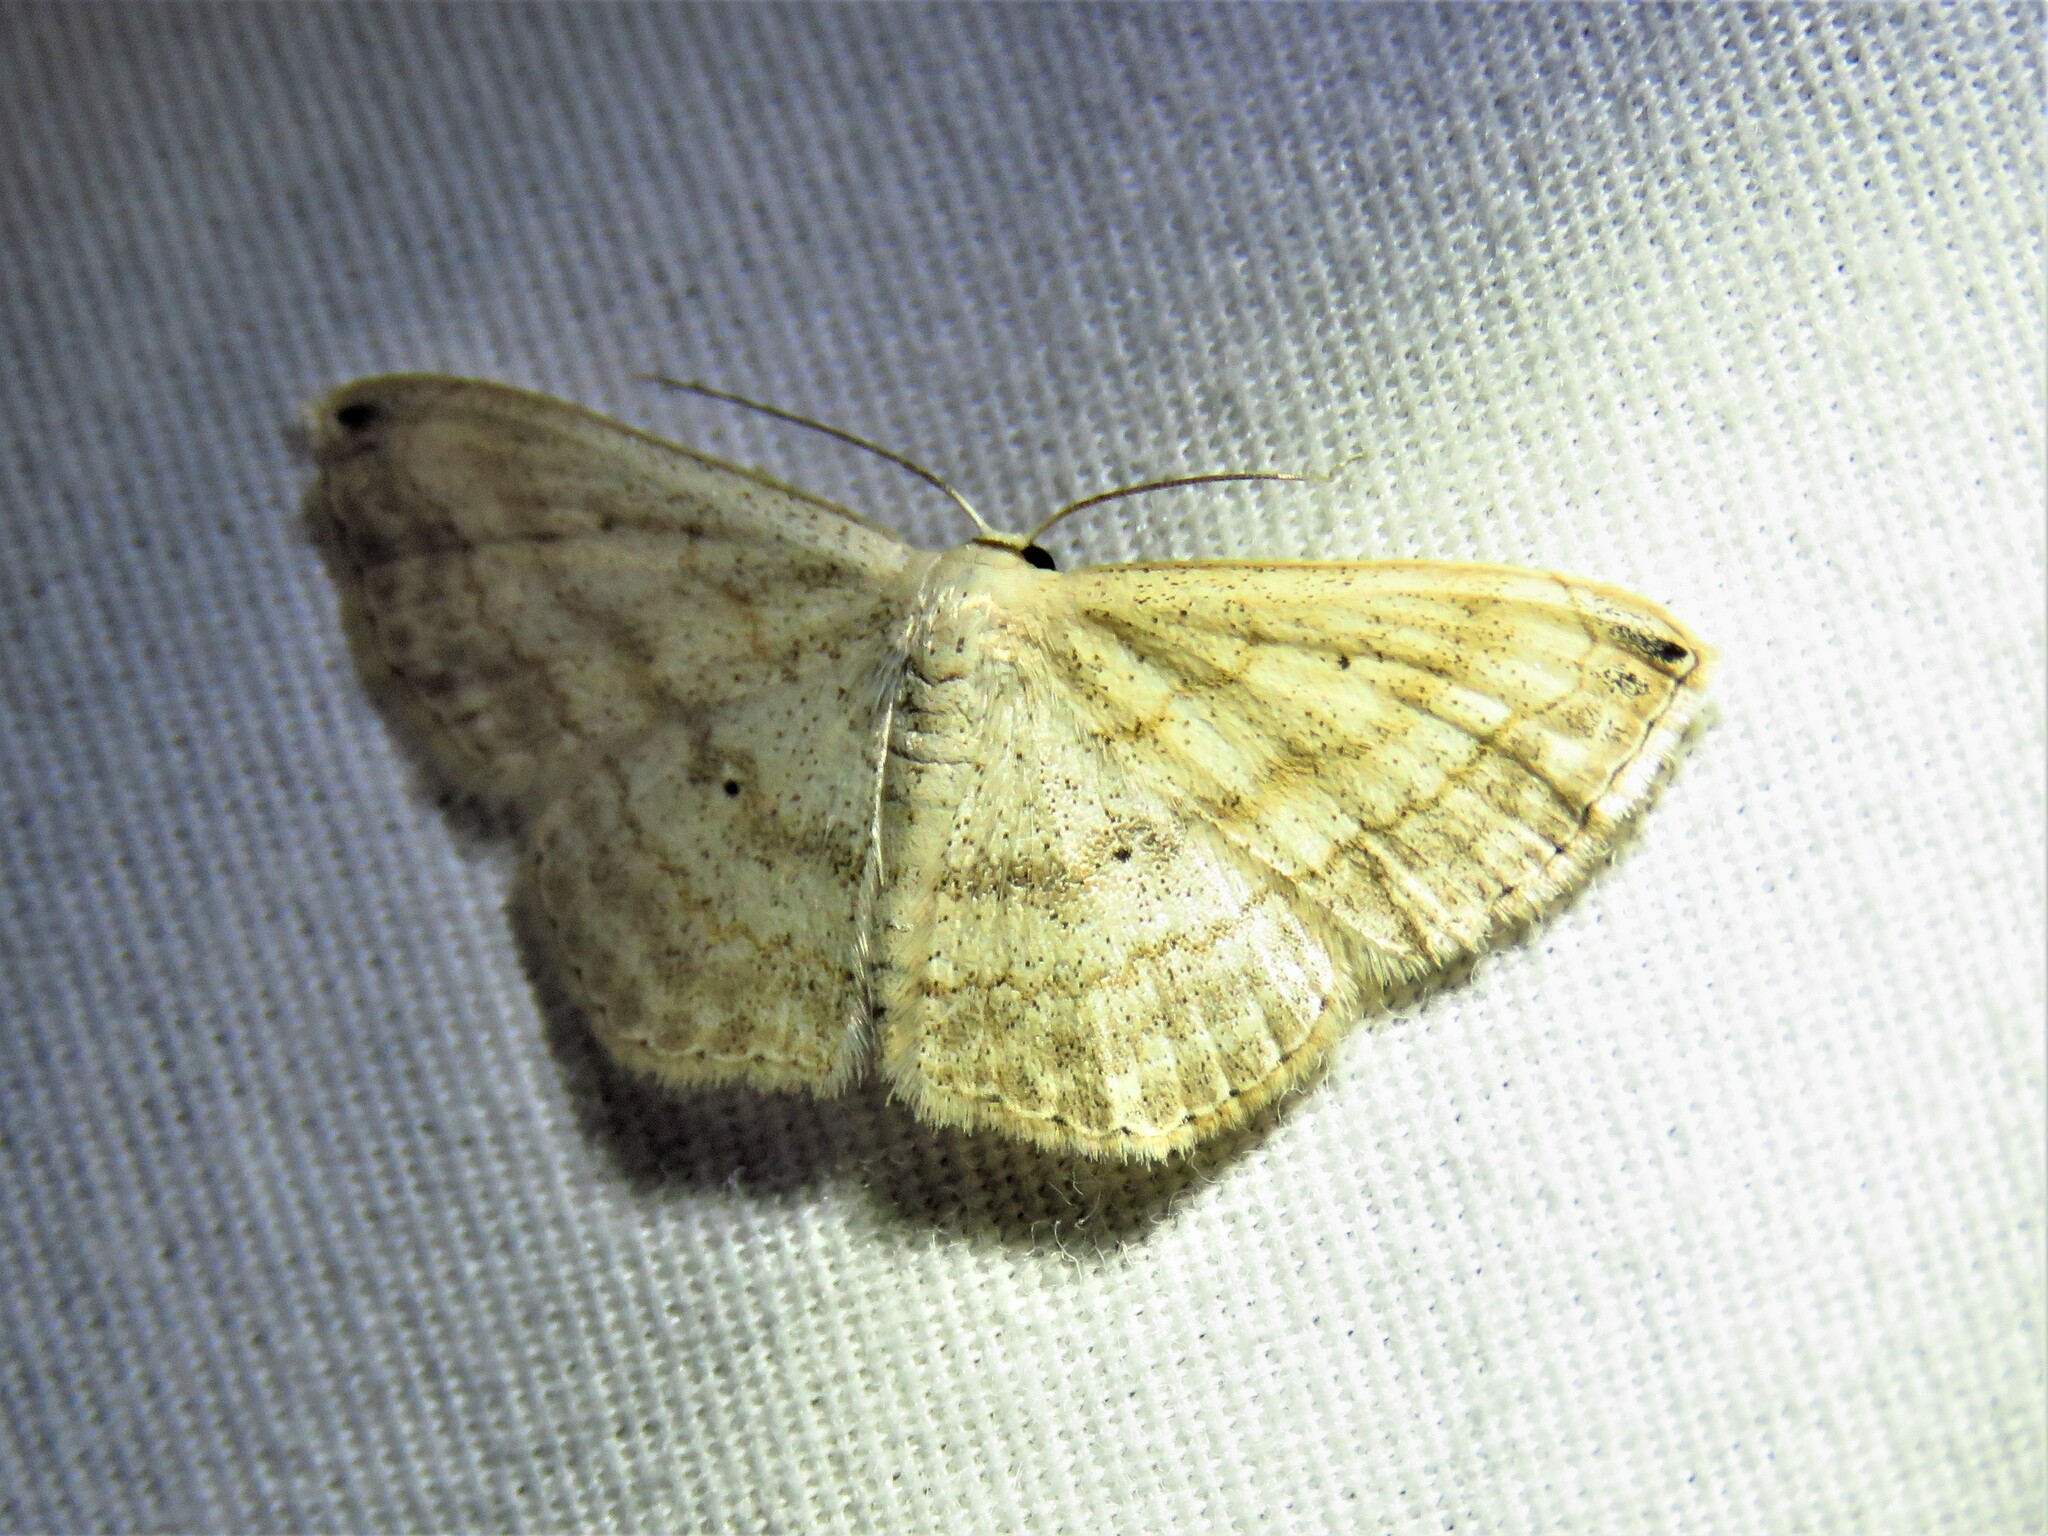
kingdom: Animalia
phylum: Arthropoda
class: Insecta
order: Lepidoptera
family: Geometridae
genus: Scopula
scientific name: Scopula umbilicata
